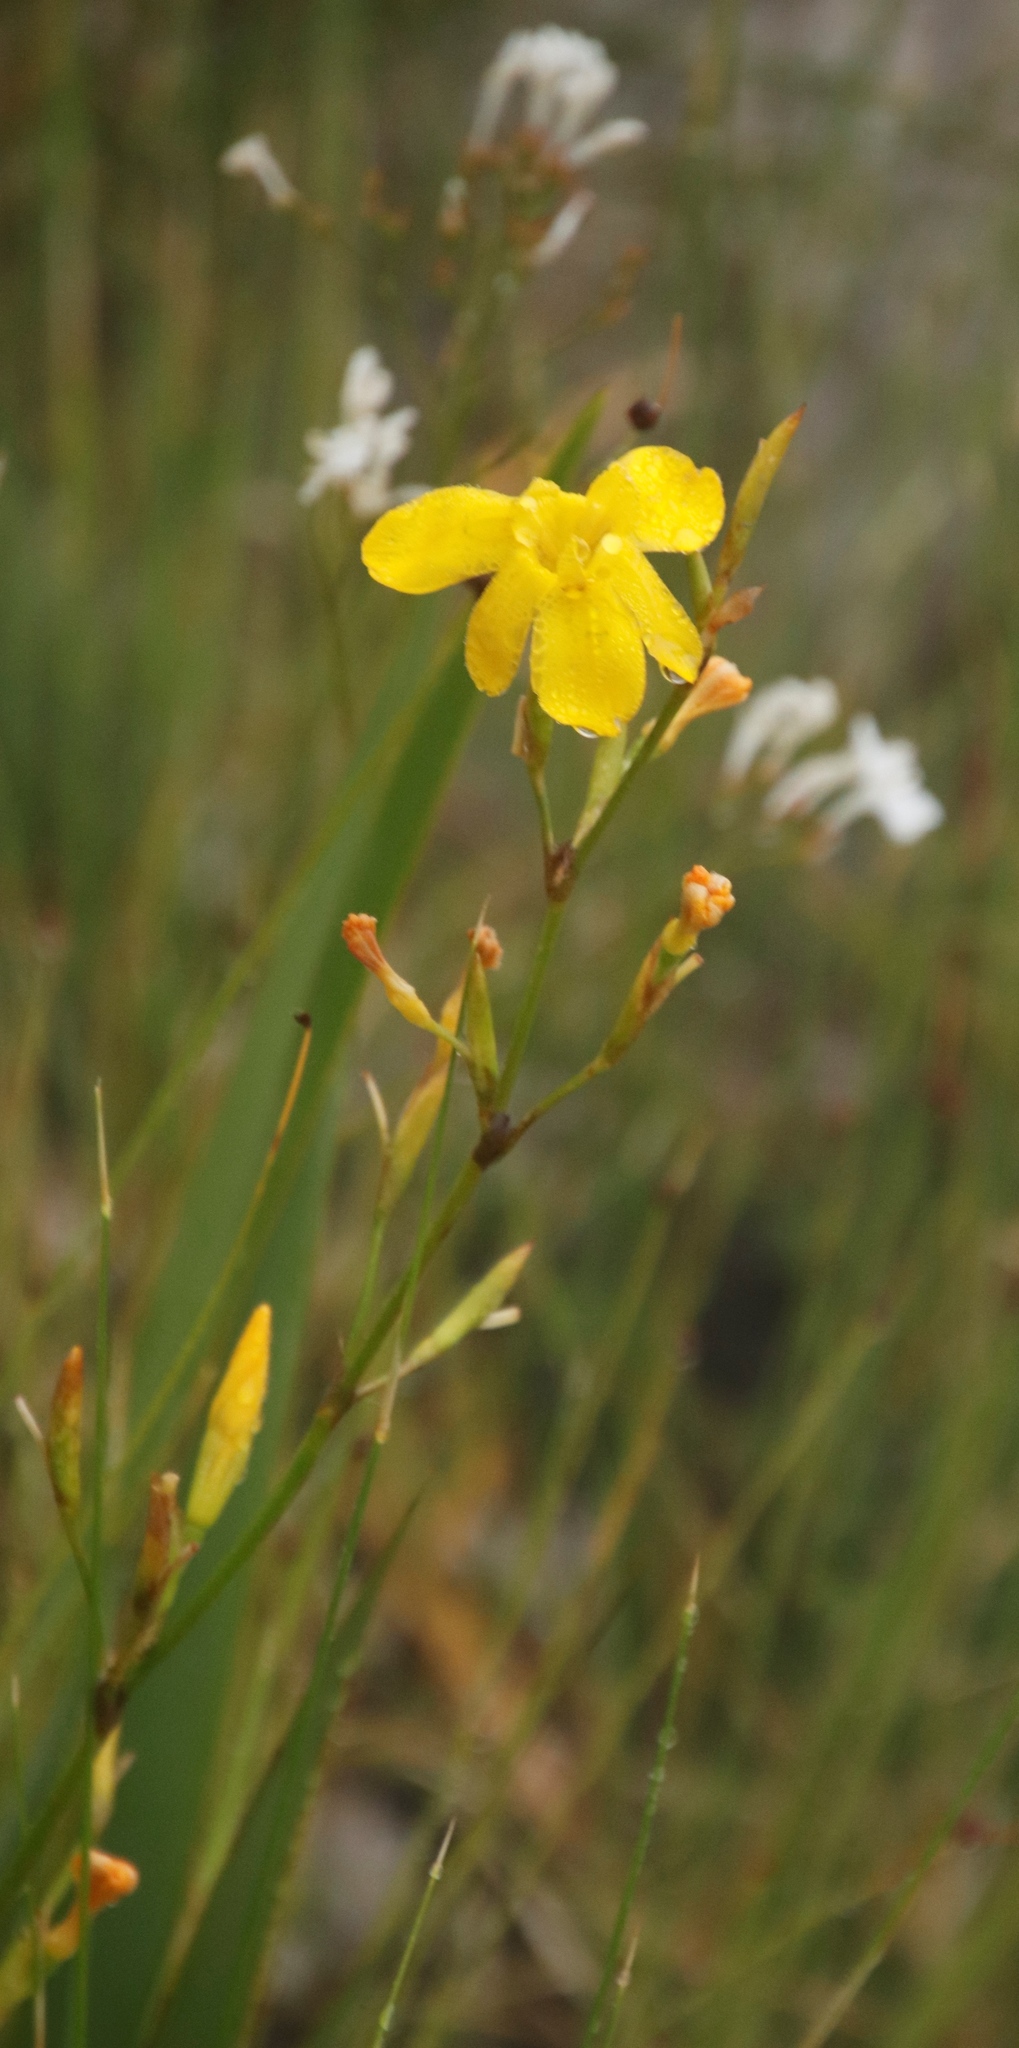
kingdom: Plantae
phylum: Tracheophyta
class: Liliopsida
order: Asparagales
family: Iridaceae
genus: Moraea
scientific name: Moraea ramosissima
